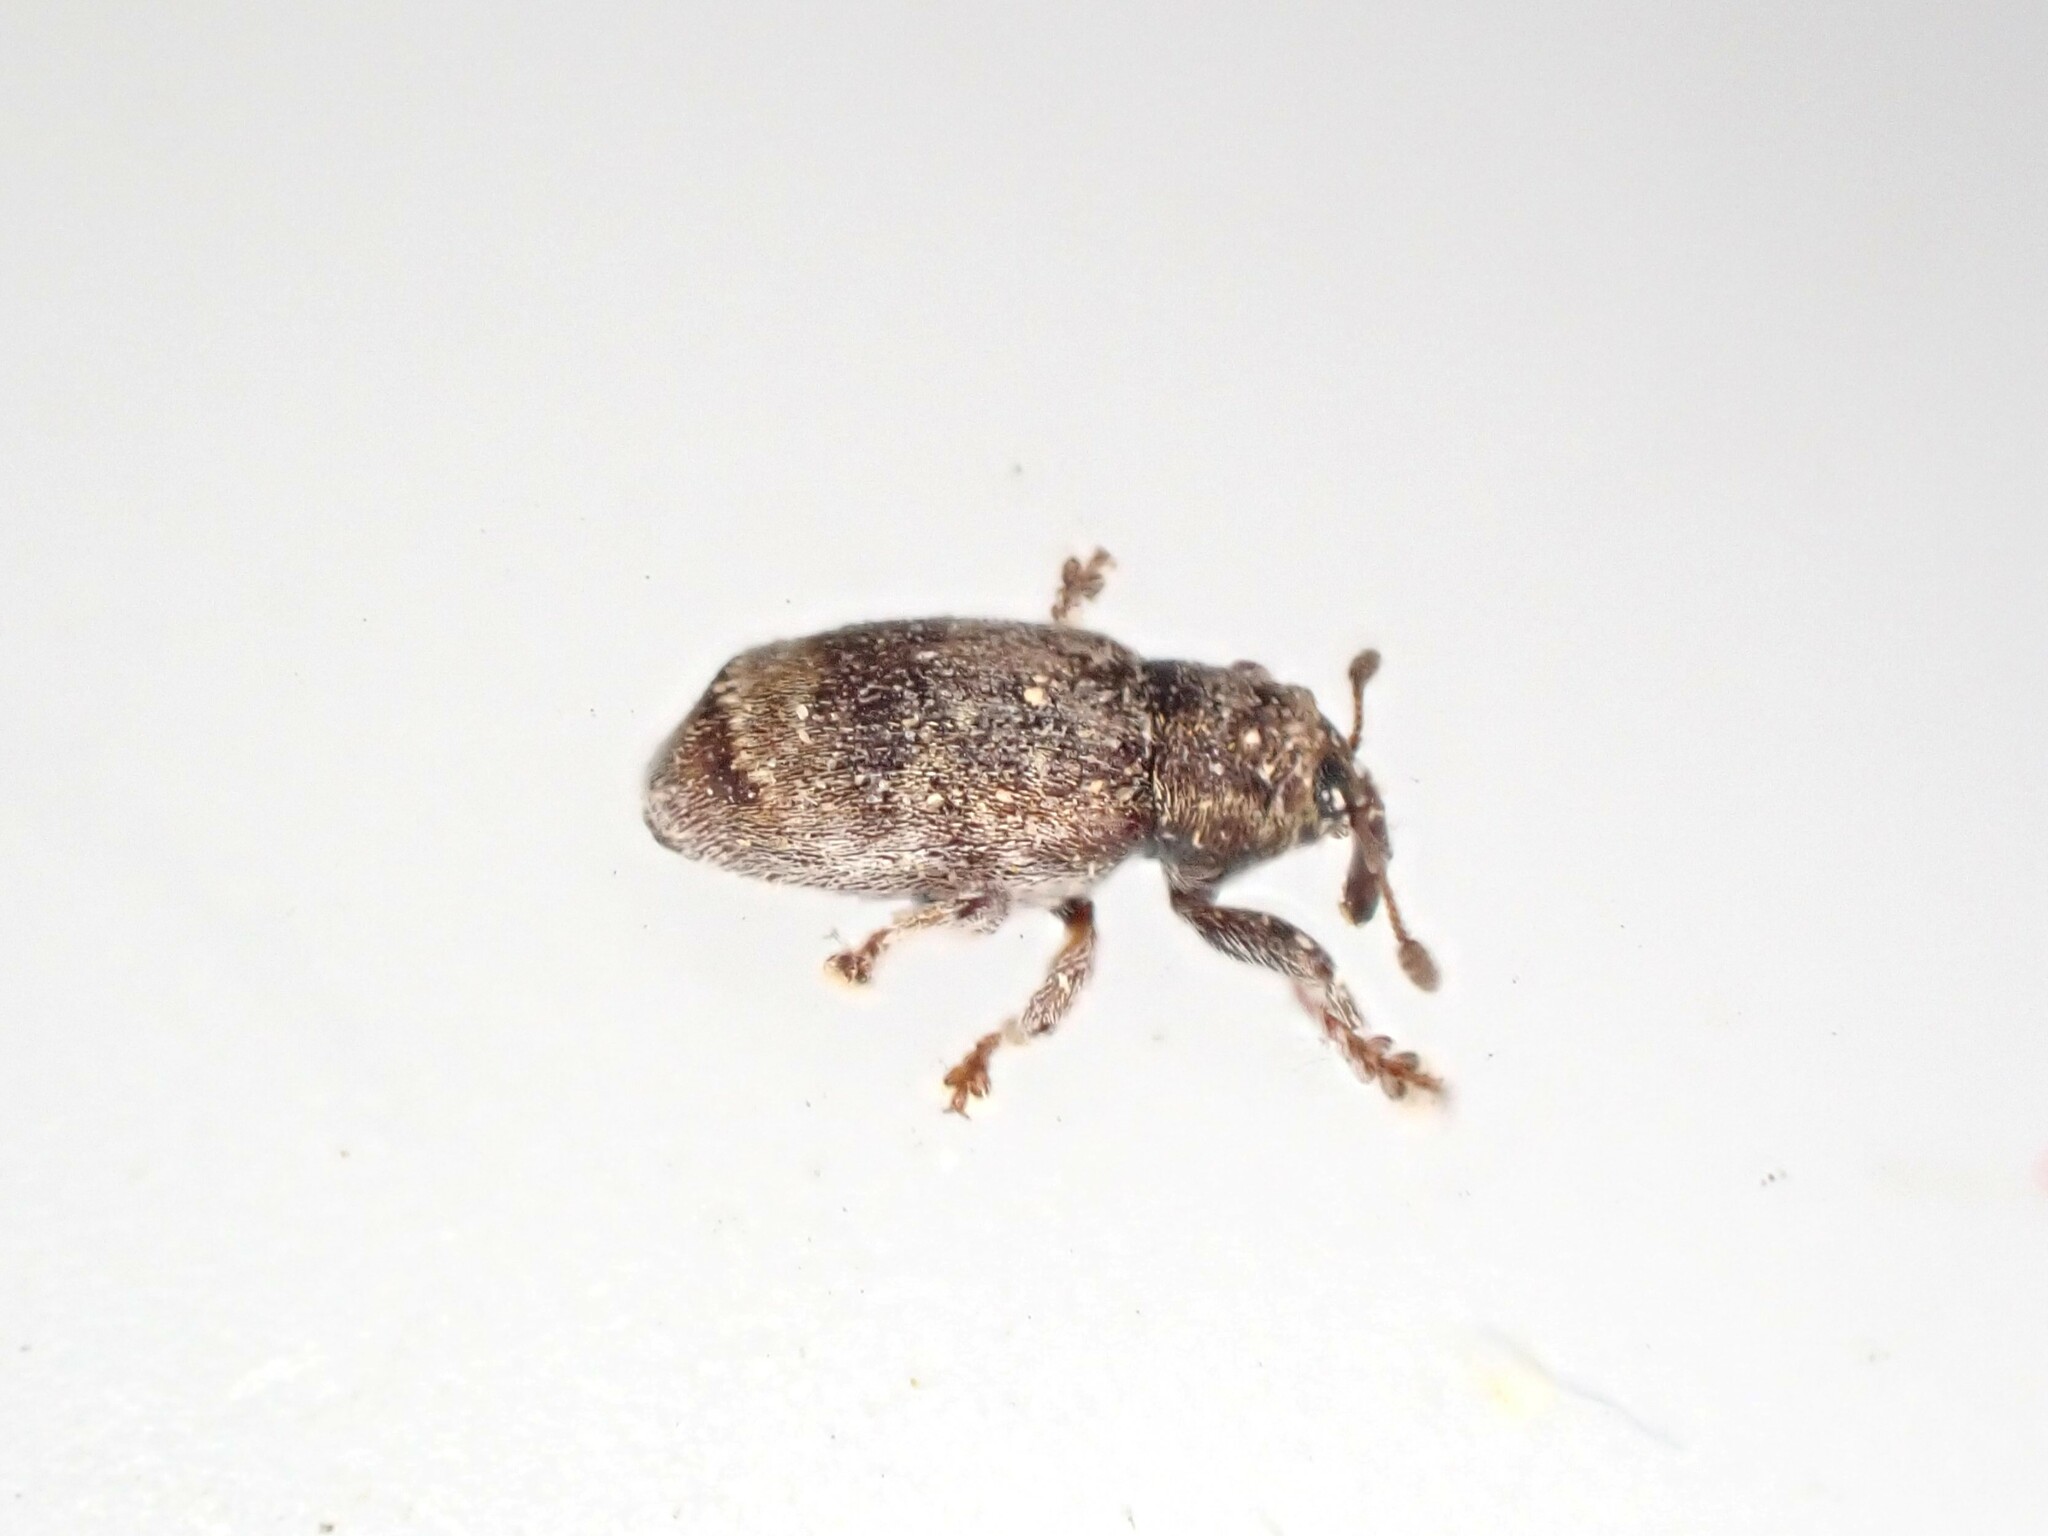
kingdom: Animalia
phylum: Arthropoda
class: Insecta
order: Coleoptera
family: Curculionidae
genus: Aneuma
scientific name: Aneuma fasciatum
